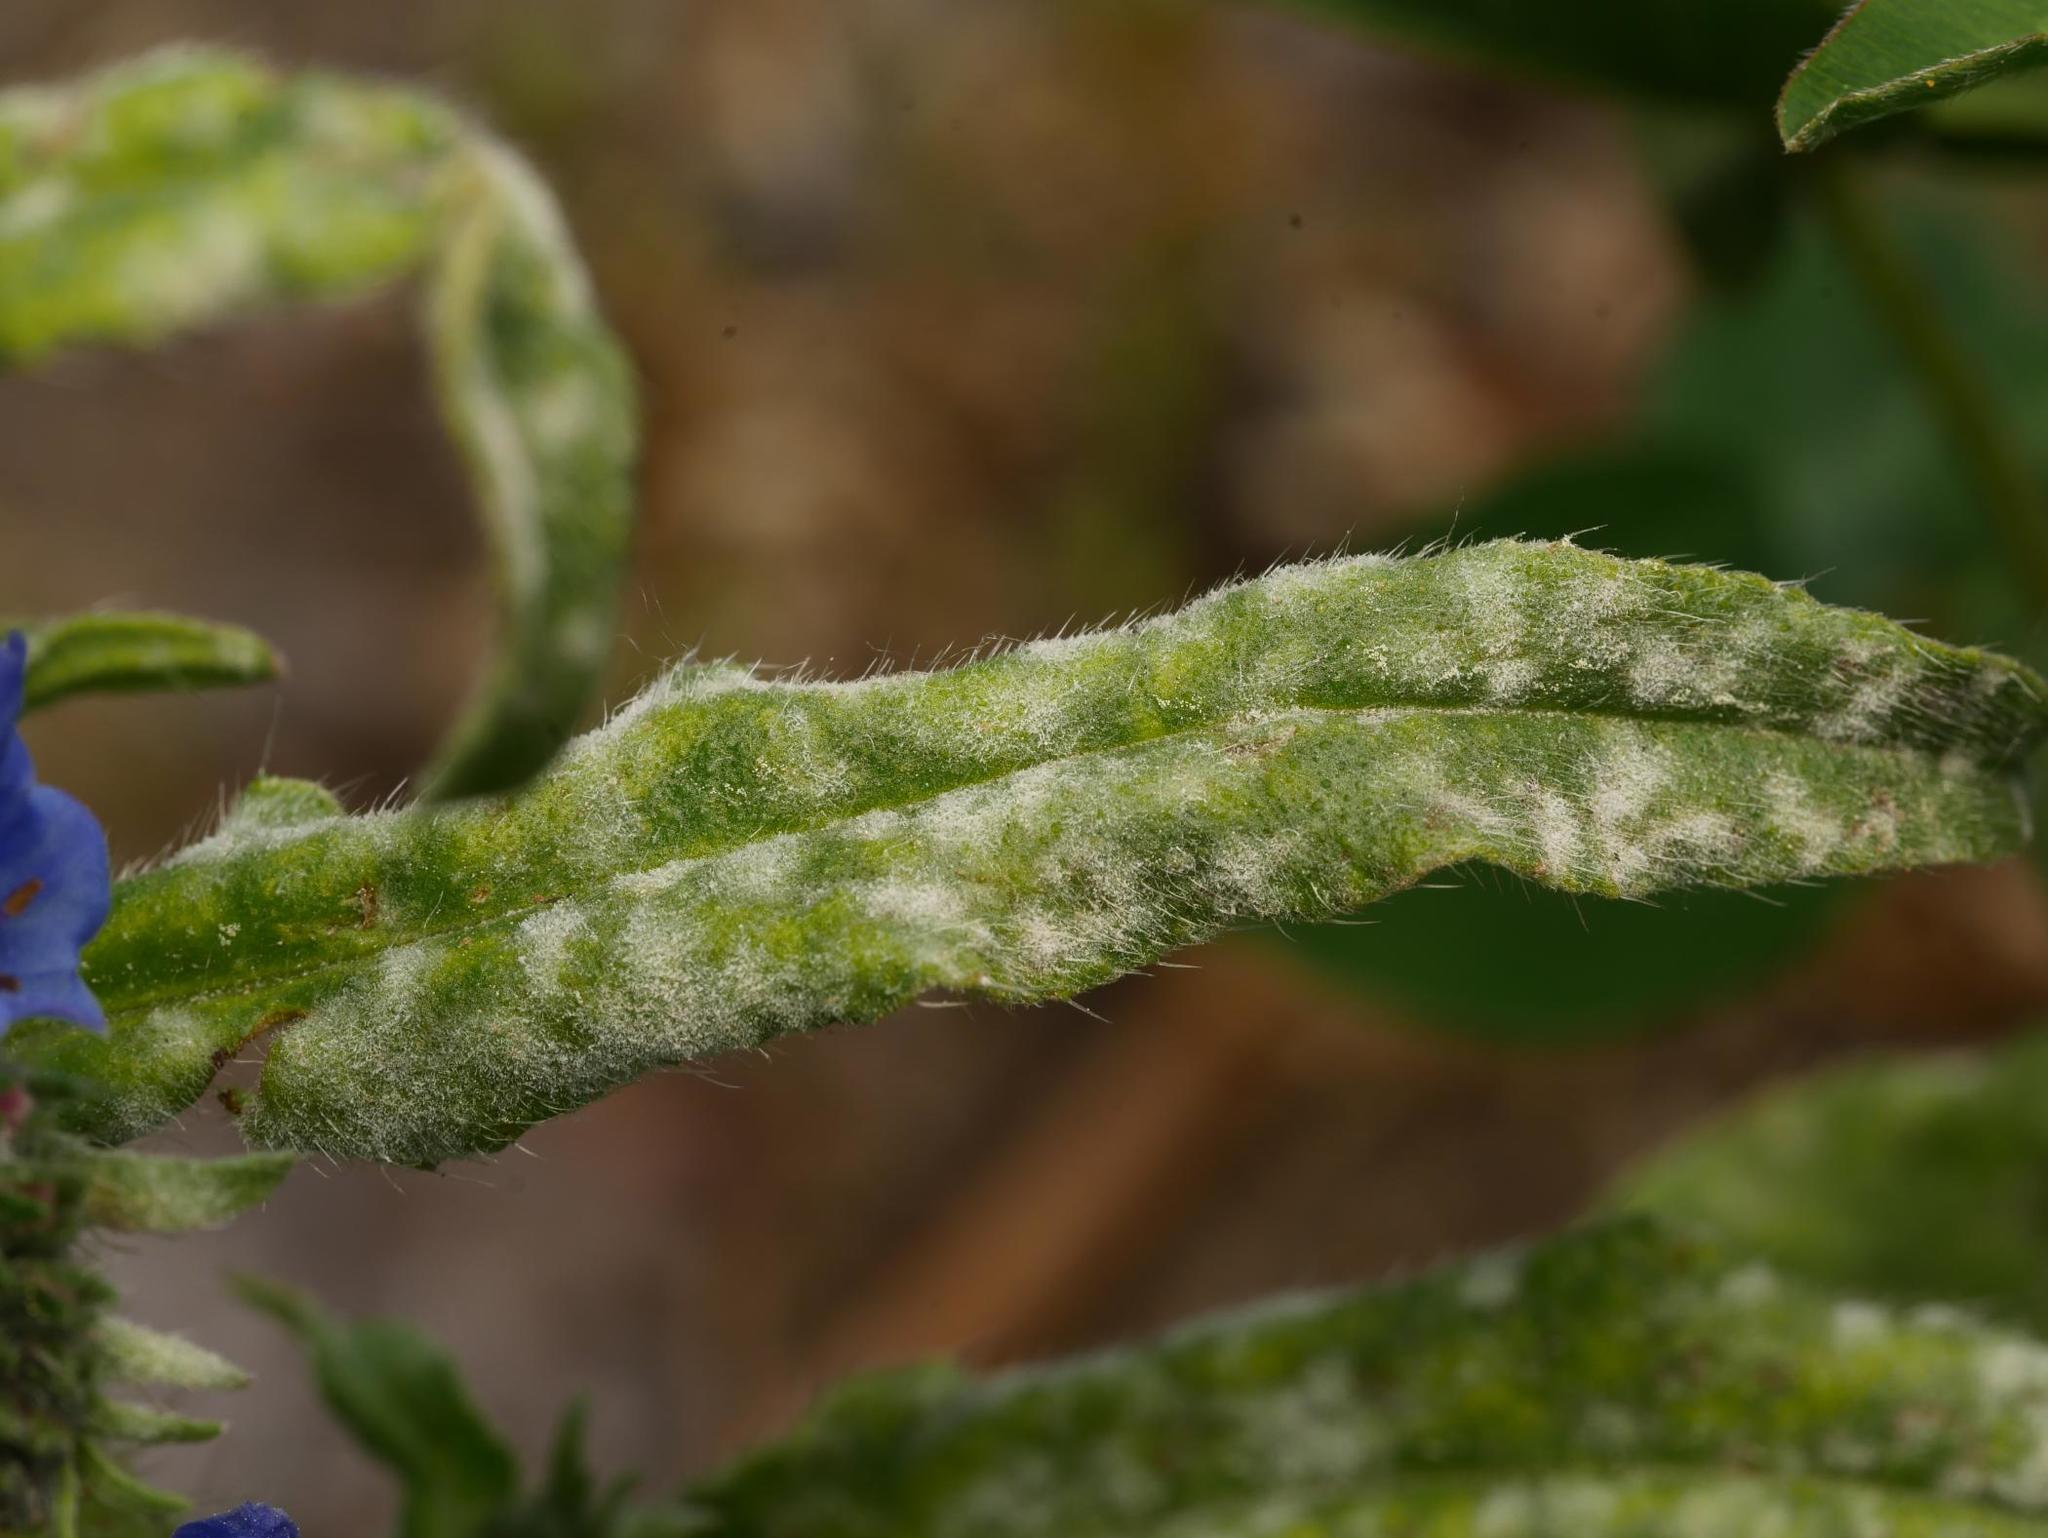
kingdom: Fungi
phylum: Ascomycota
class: Leotiomycetes
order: Helotiales
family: Erysiphaceae
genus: Golovinomyces
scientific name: Golovinomyces asperifolii
